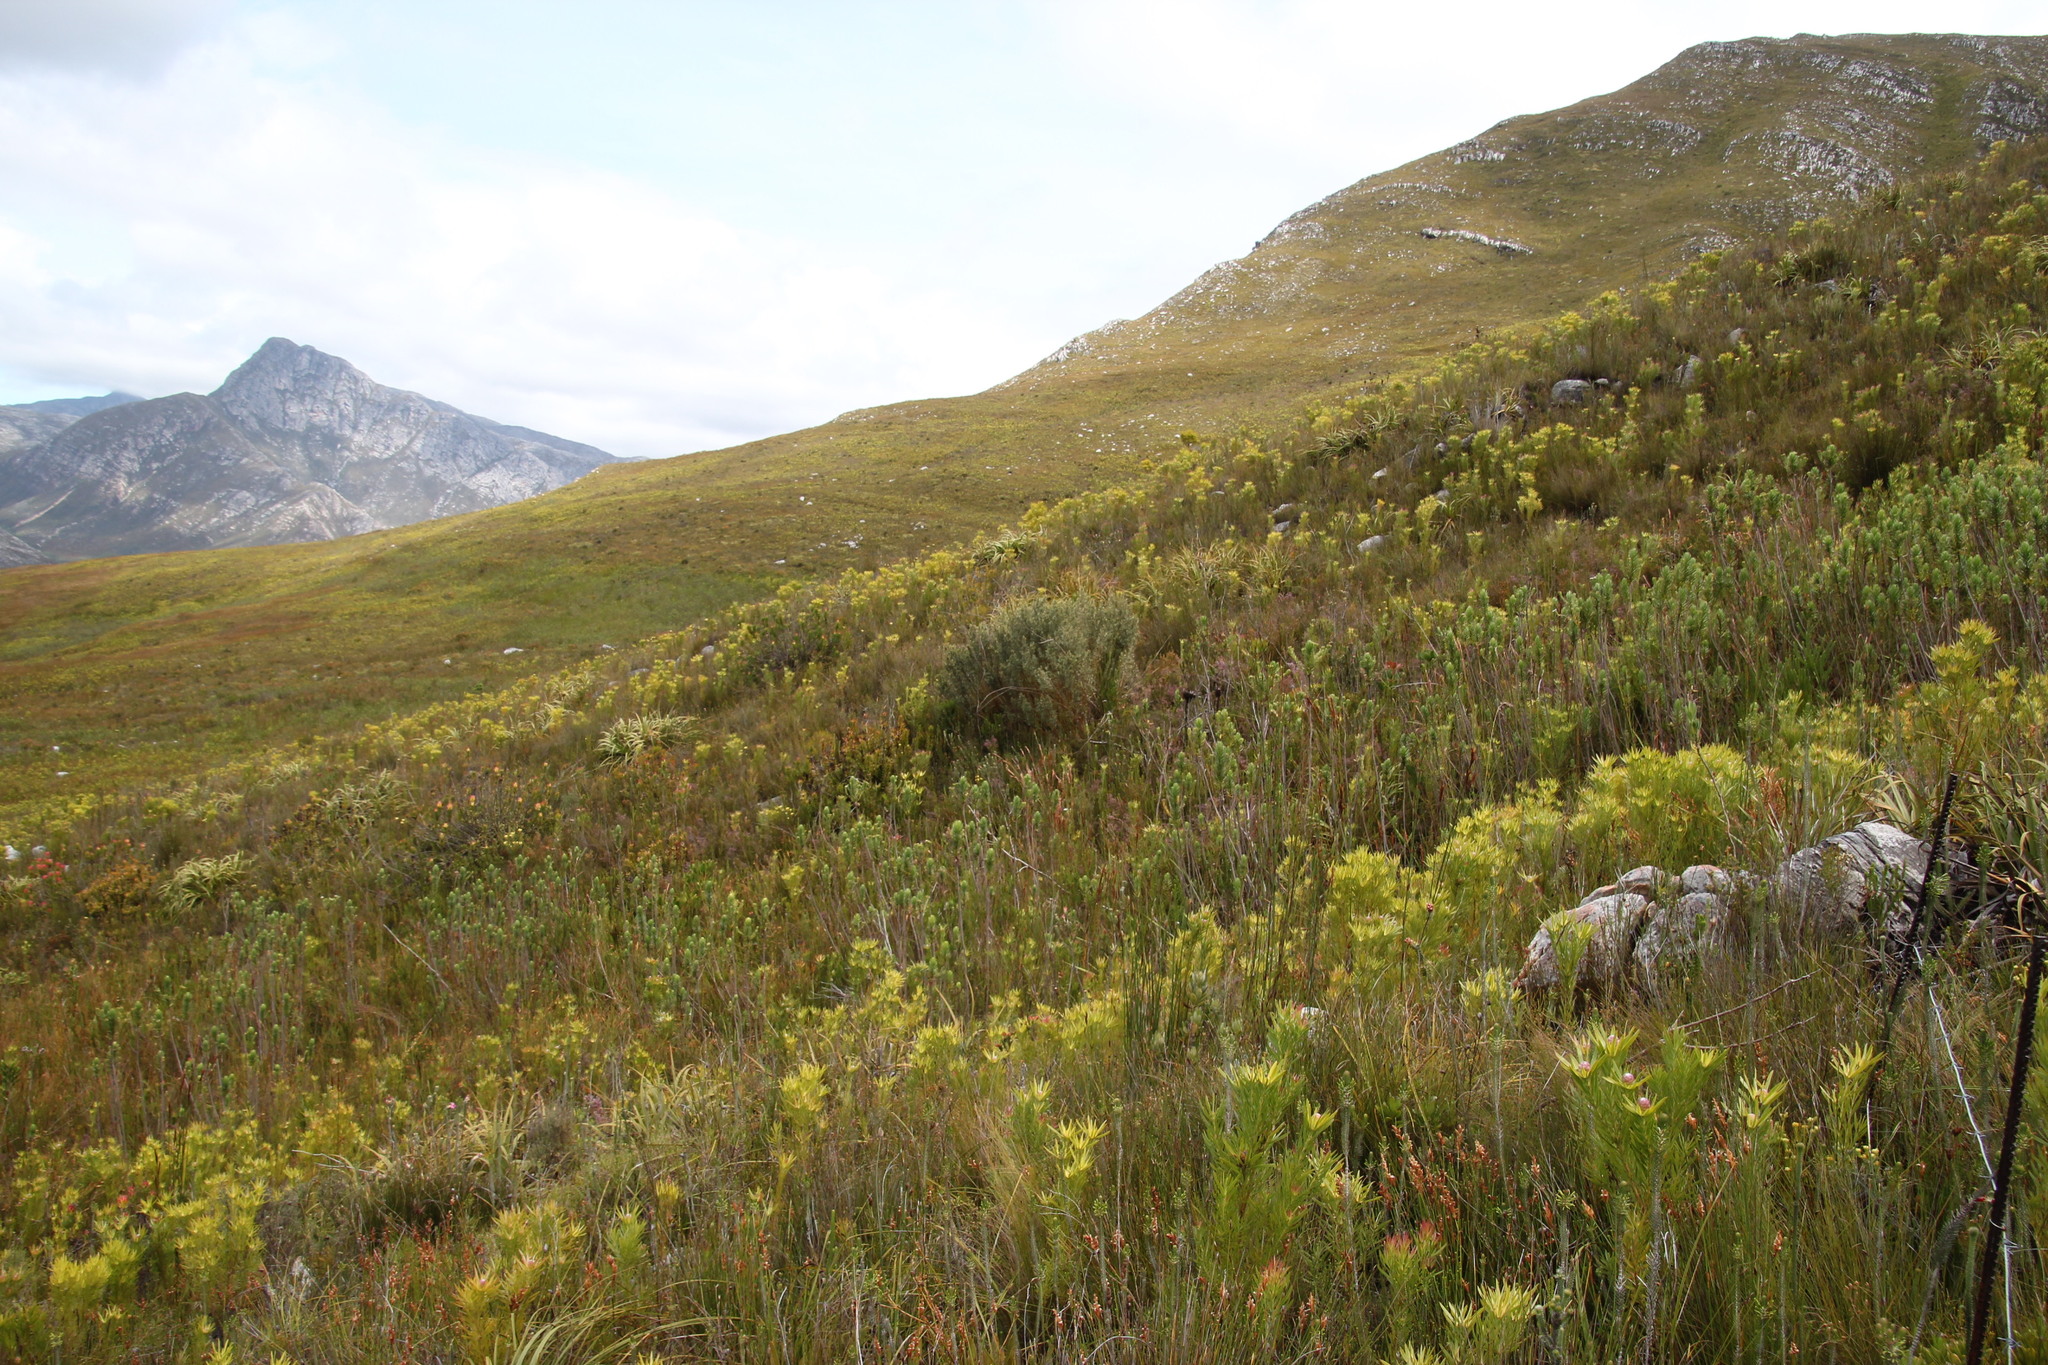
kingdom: Plantae
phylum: Tracheophyta
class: Magnoliopsida
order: Cornales
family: Grubbiaceae
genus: Grubbia
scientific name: Grubbia tomentosa
